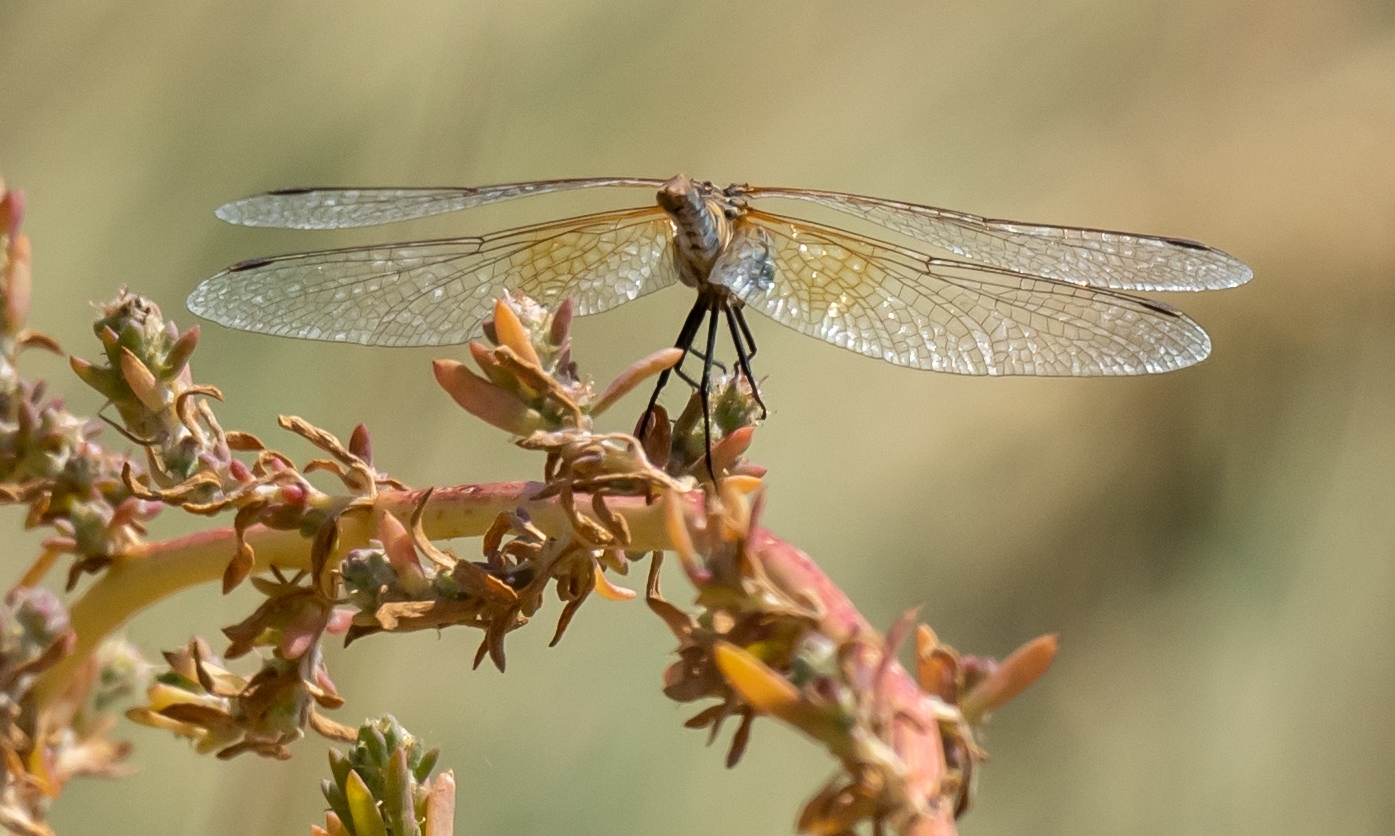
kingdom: Animalia
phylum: Arthropoda
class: Insecta
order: Odonata
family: Libellulidae
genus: Sympetrum
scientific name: Sympetrum semicinctum
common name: Band-winged meadowhawk
